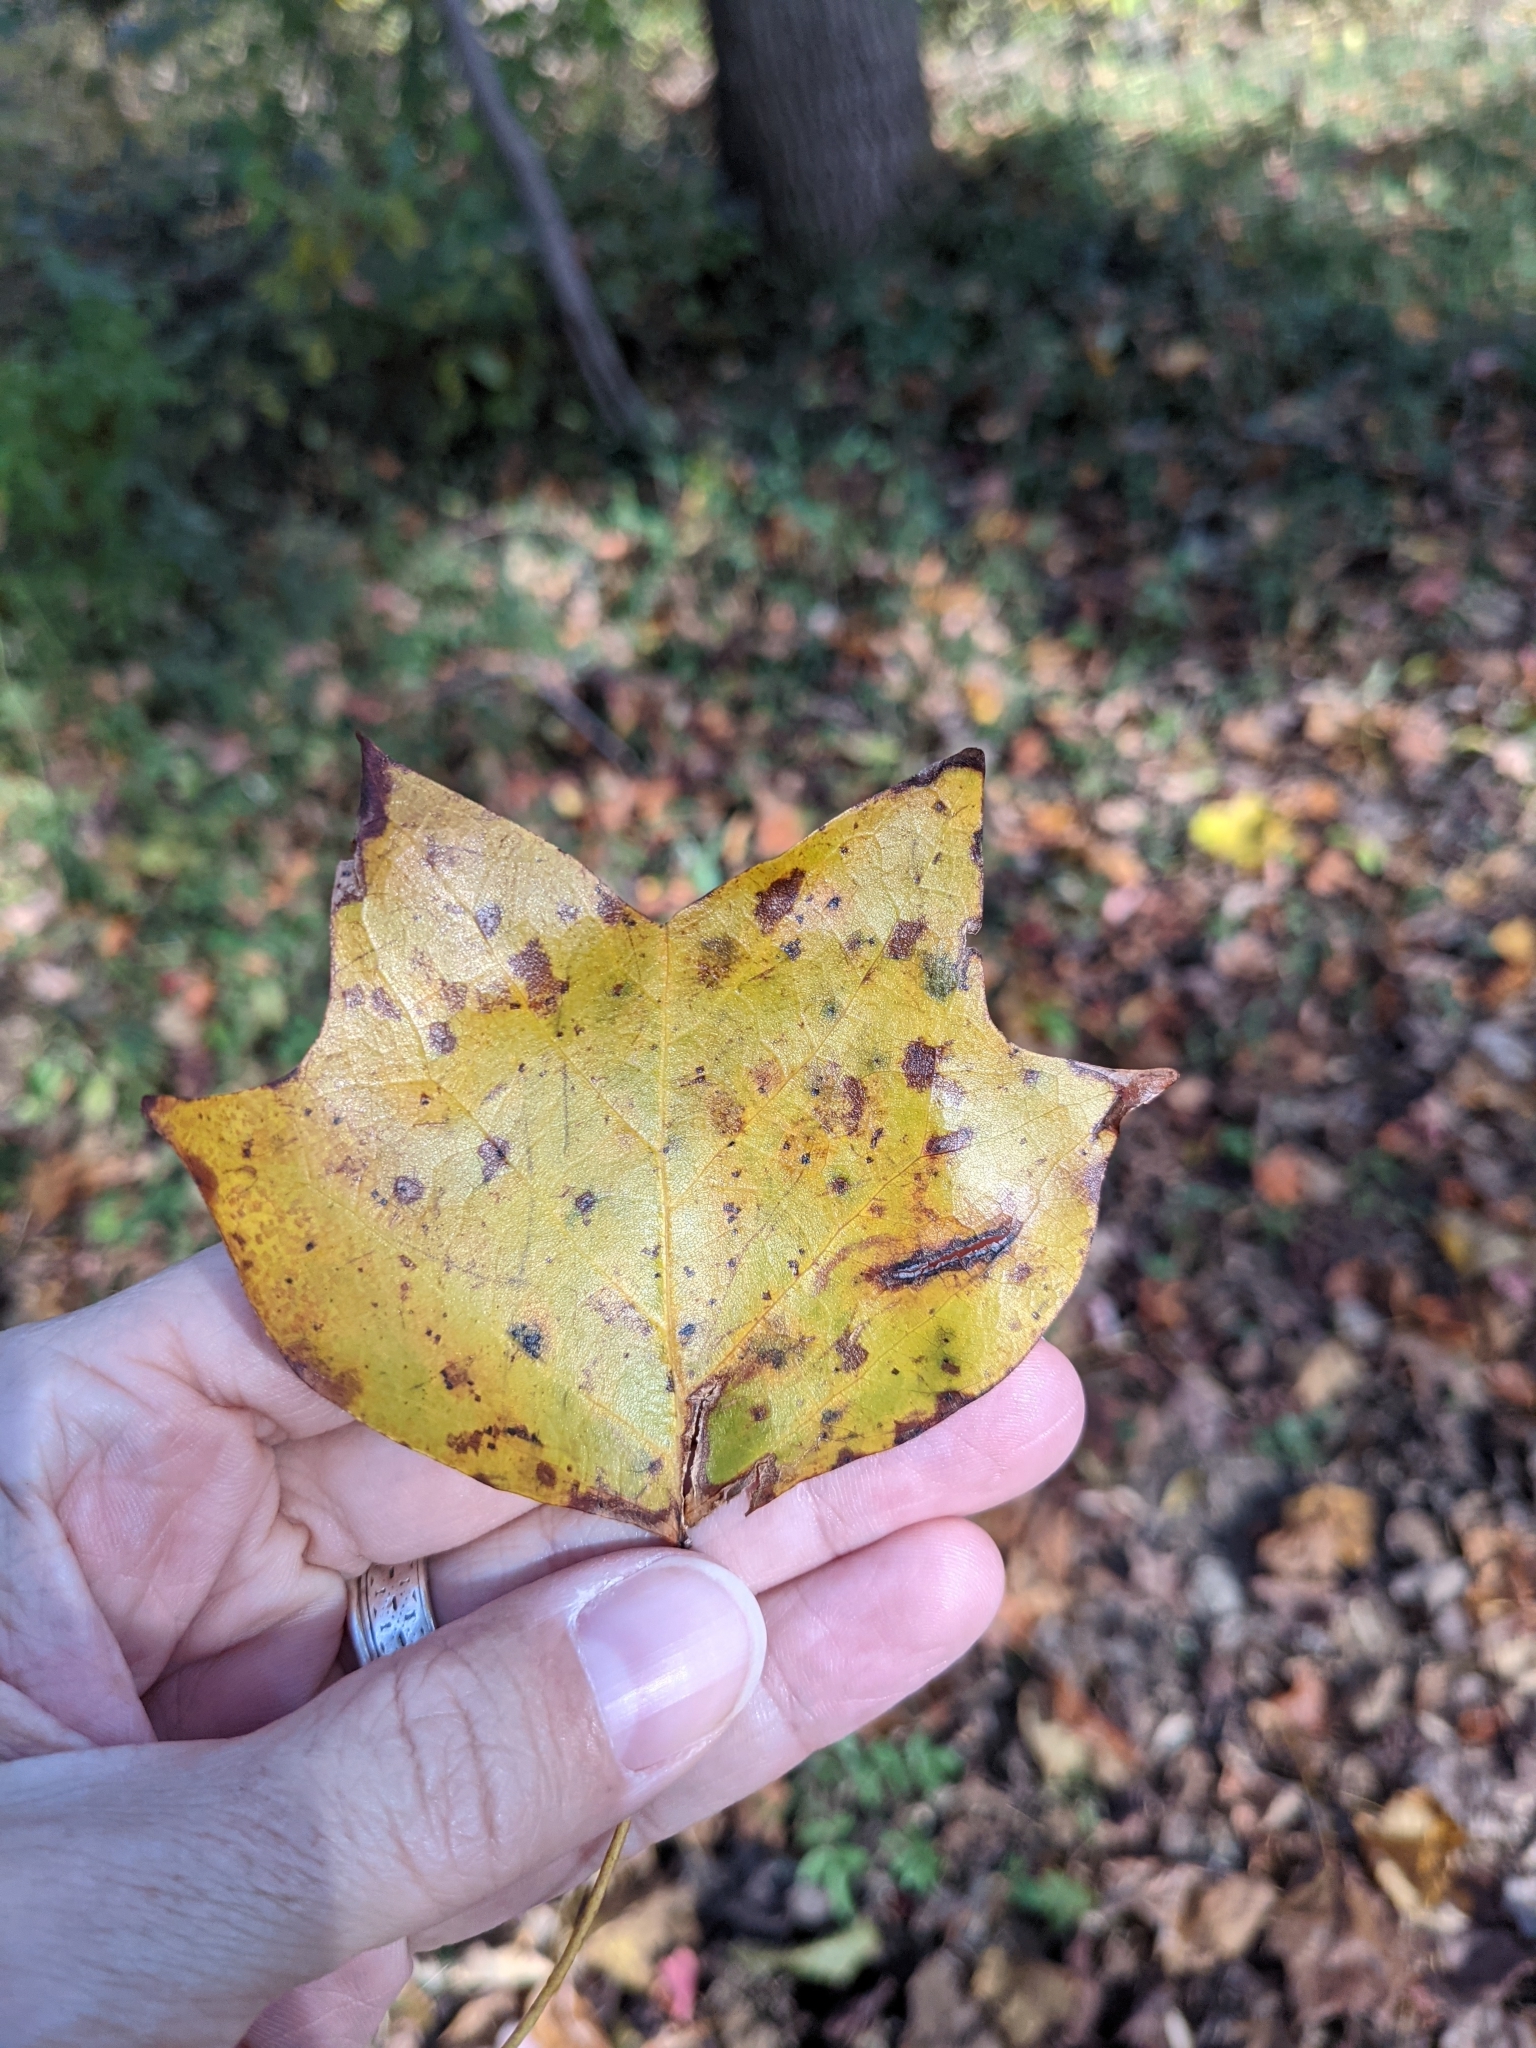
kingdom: Plantae
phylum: Tracheophyta
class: Magnoliopsida
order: Magnoliales
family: Magnoliaceae
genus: Liriodendron
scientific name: Liriodendron tulipifera
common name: Tulip tree
